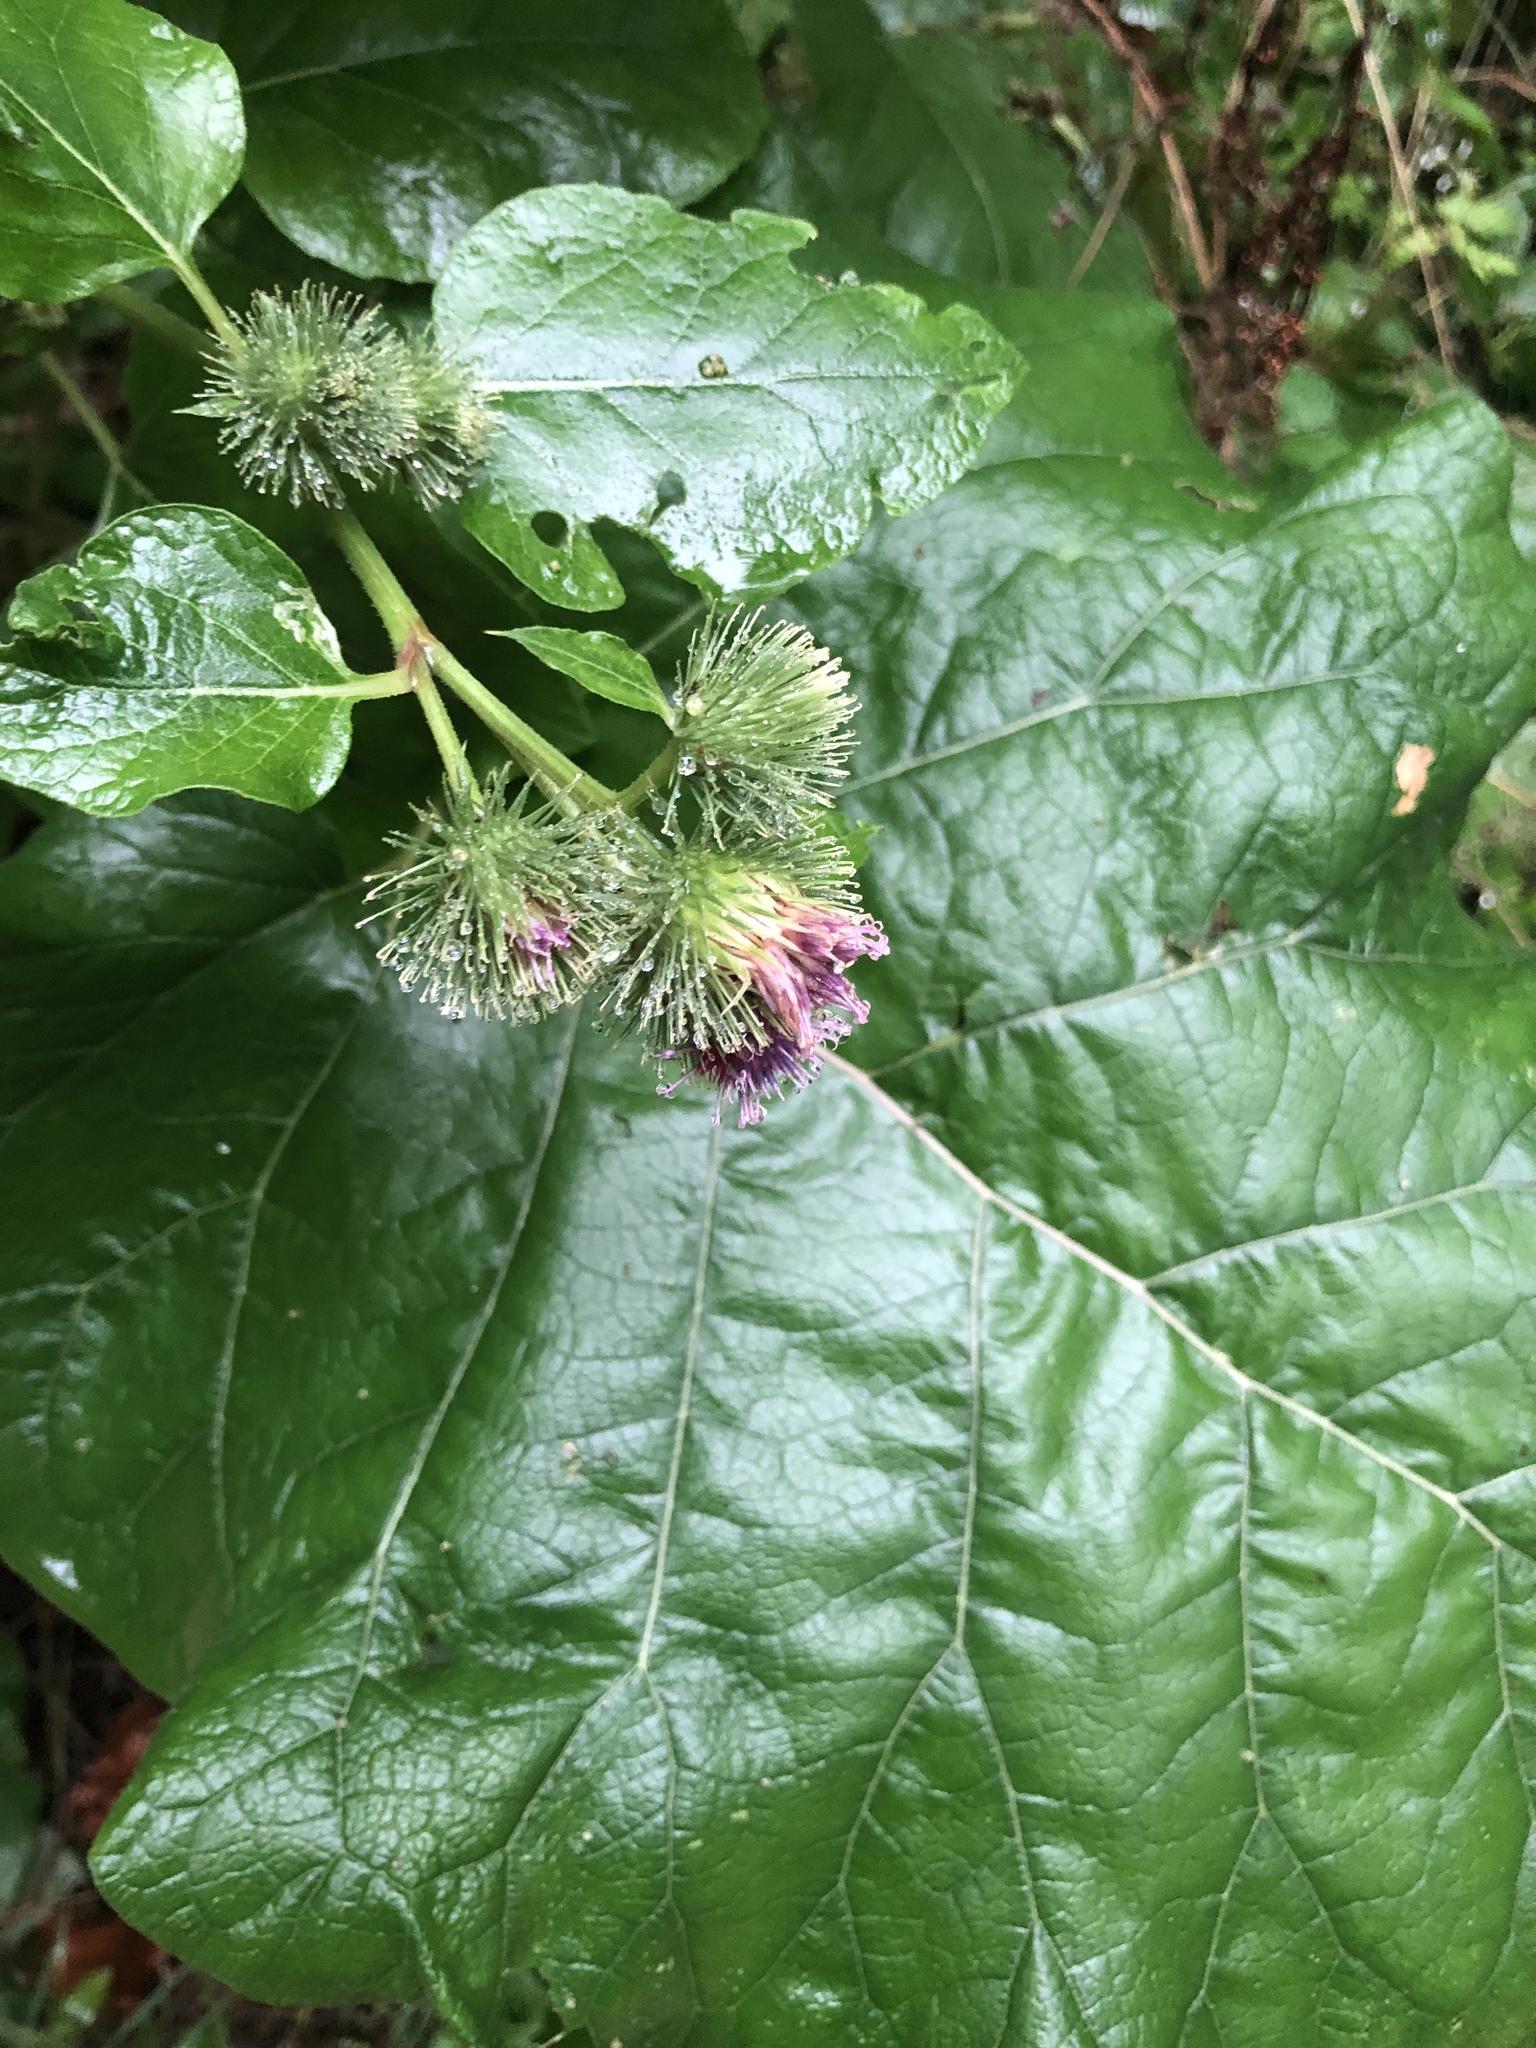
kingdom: Plantae
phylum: Tracheophyta
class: Magnoliopsida
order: Asterales
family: Asteraceae
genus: Arctium
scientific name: Arctium lappa
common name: Greater burdock
